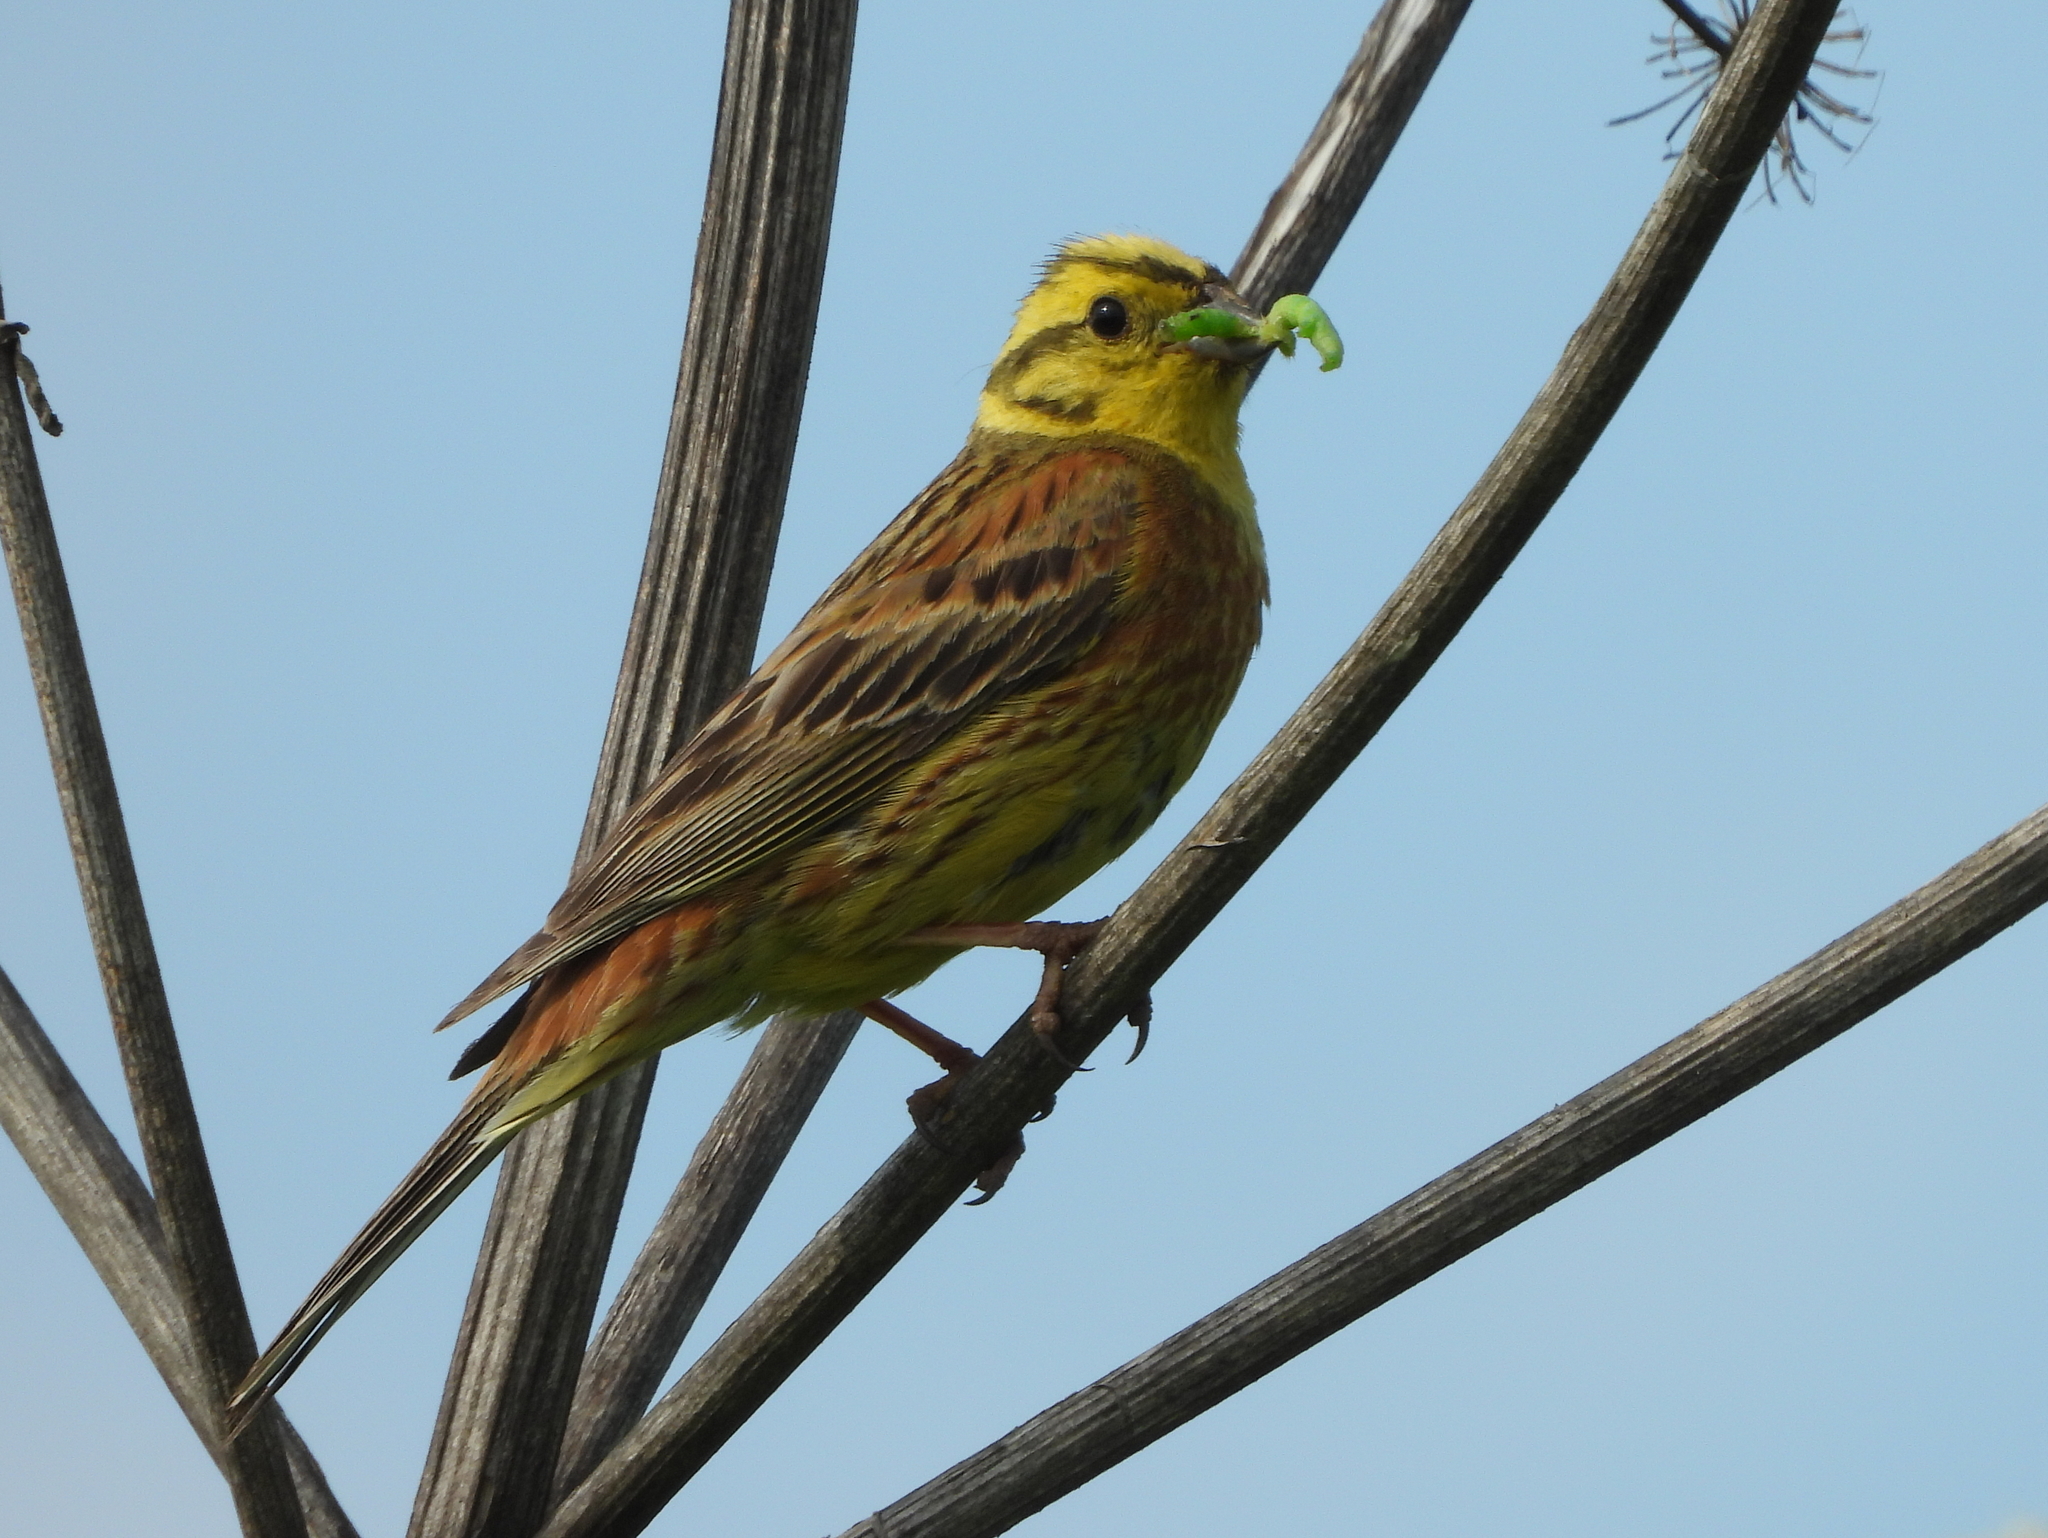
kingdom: Animalia
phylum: Chordata
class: Aves
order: Passeriformes
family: Emberizidae
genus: Emberiza
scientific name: Emberiza citrinella
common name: Yellowhammer
